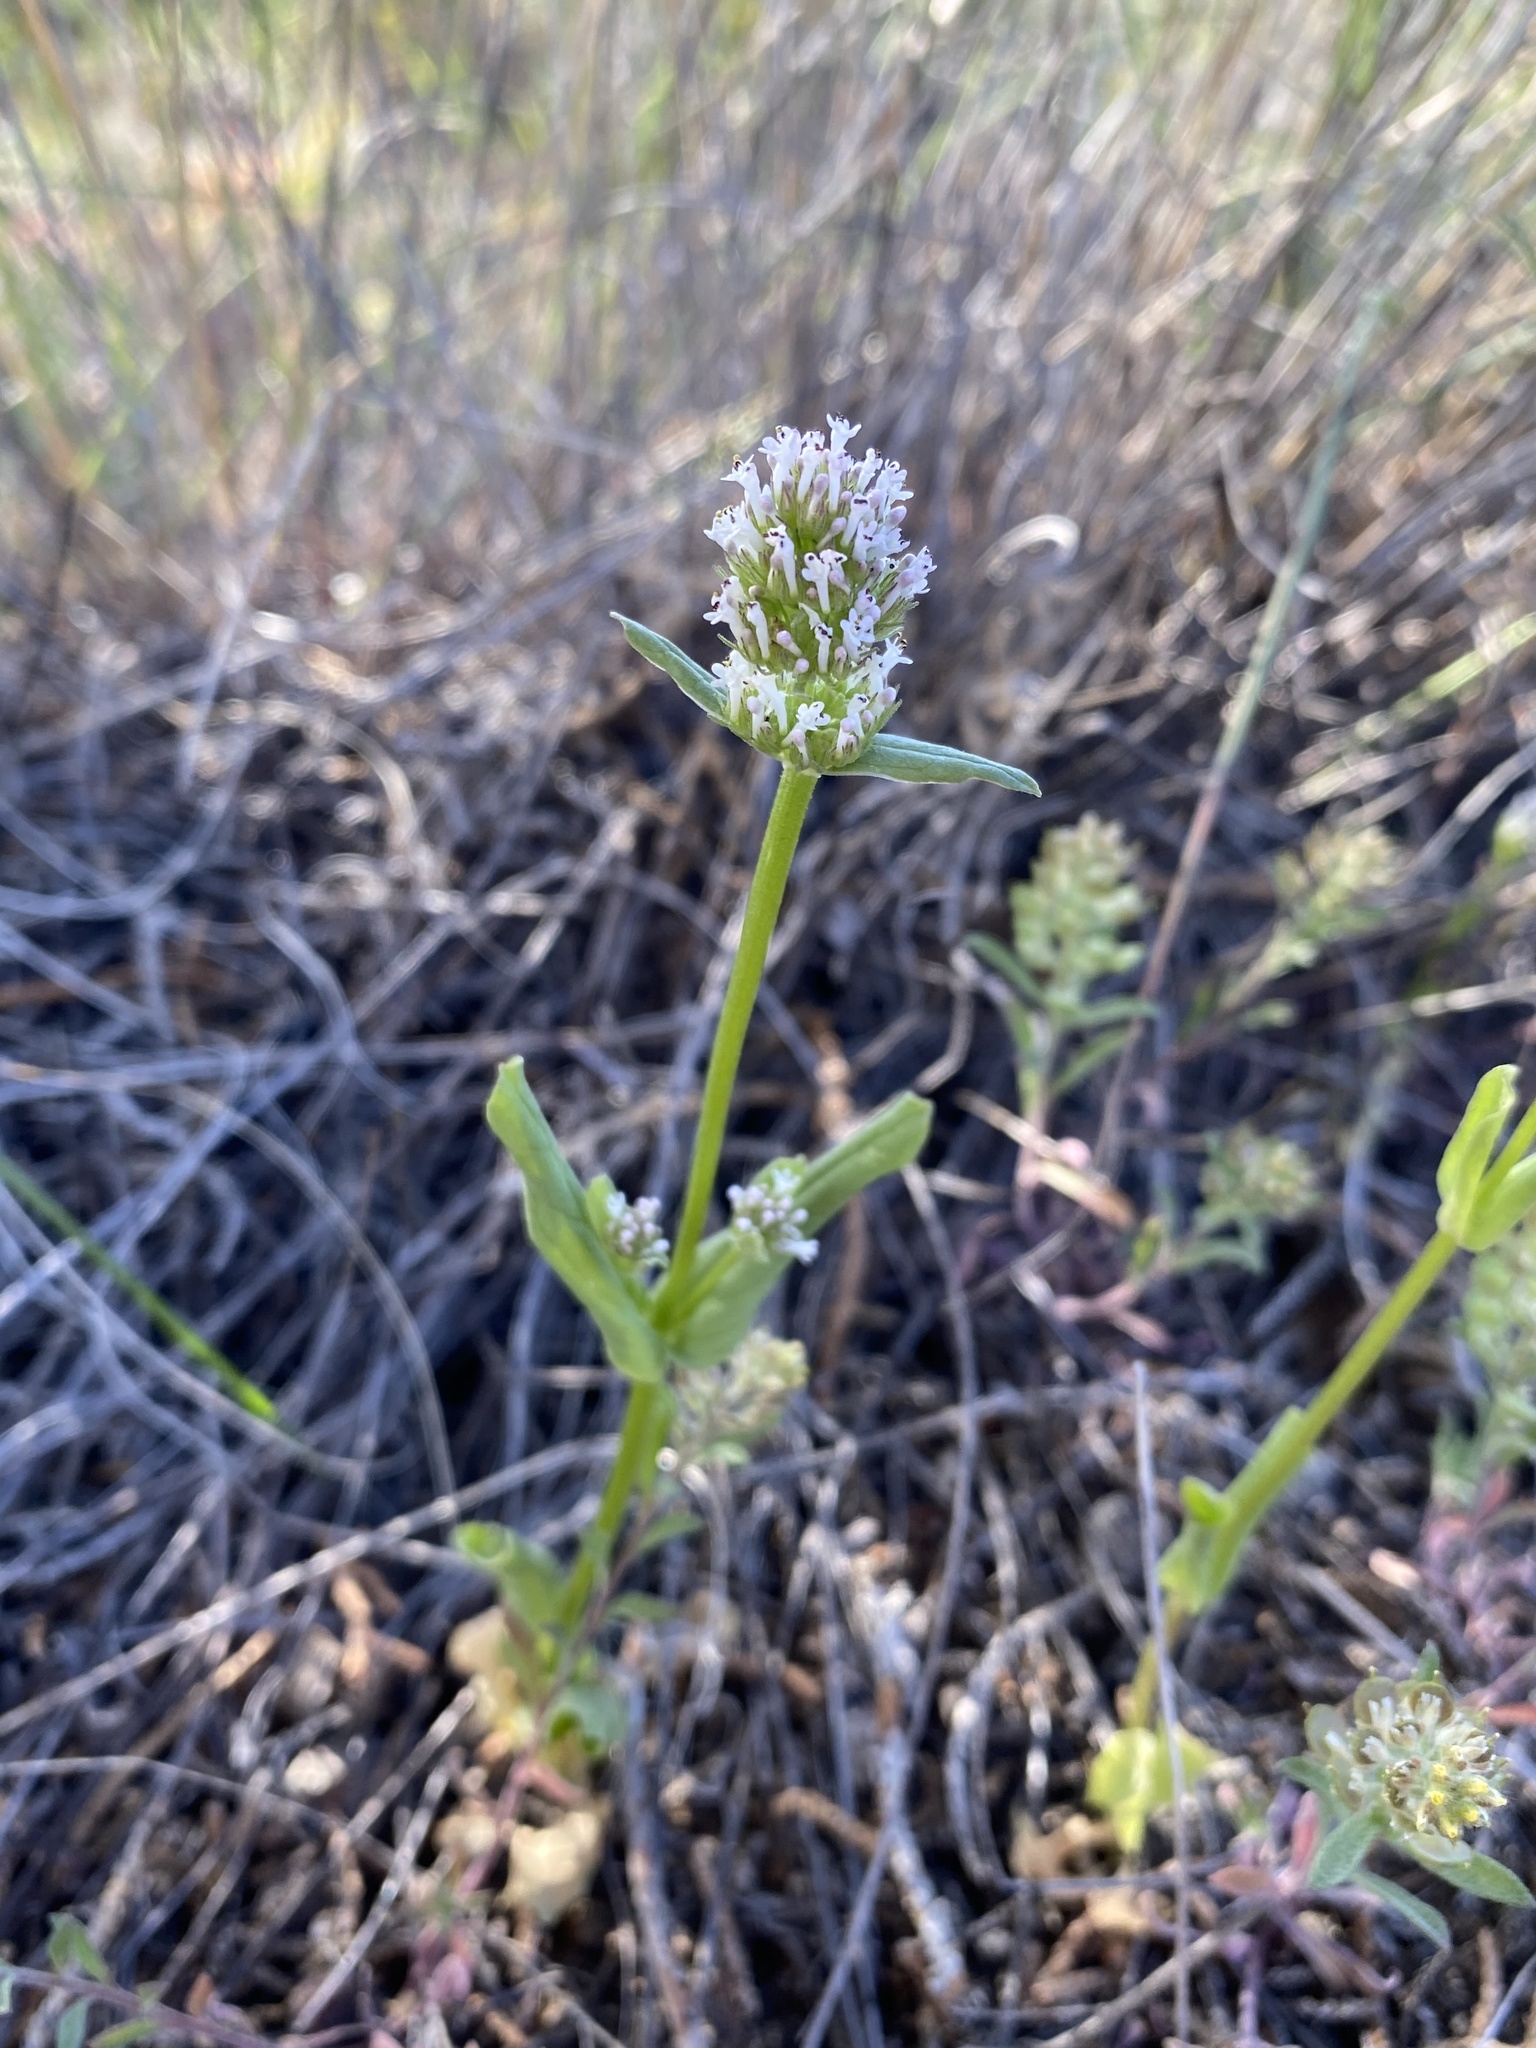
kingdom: Plantae
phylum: Tracheophyta
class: Magnoliopsida
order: Dipsacales
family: Caprifoliaceae
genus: Plectritis
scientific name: Plectritis macroptera
